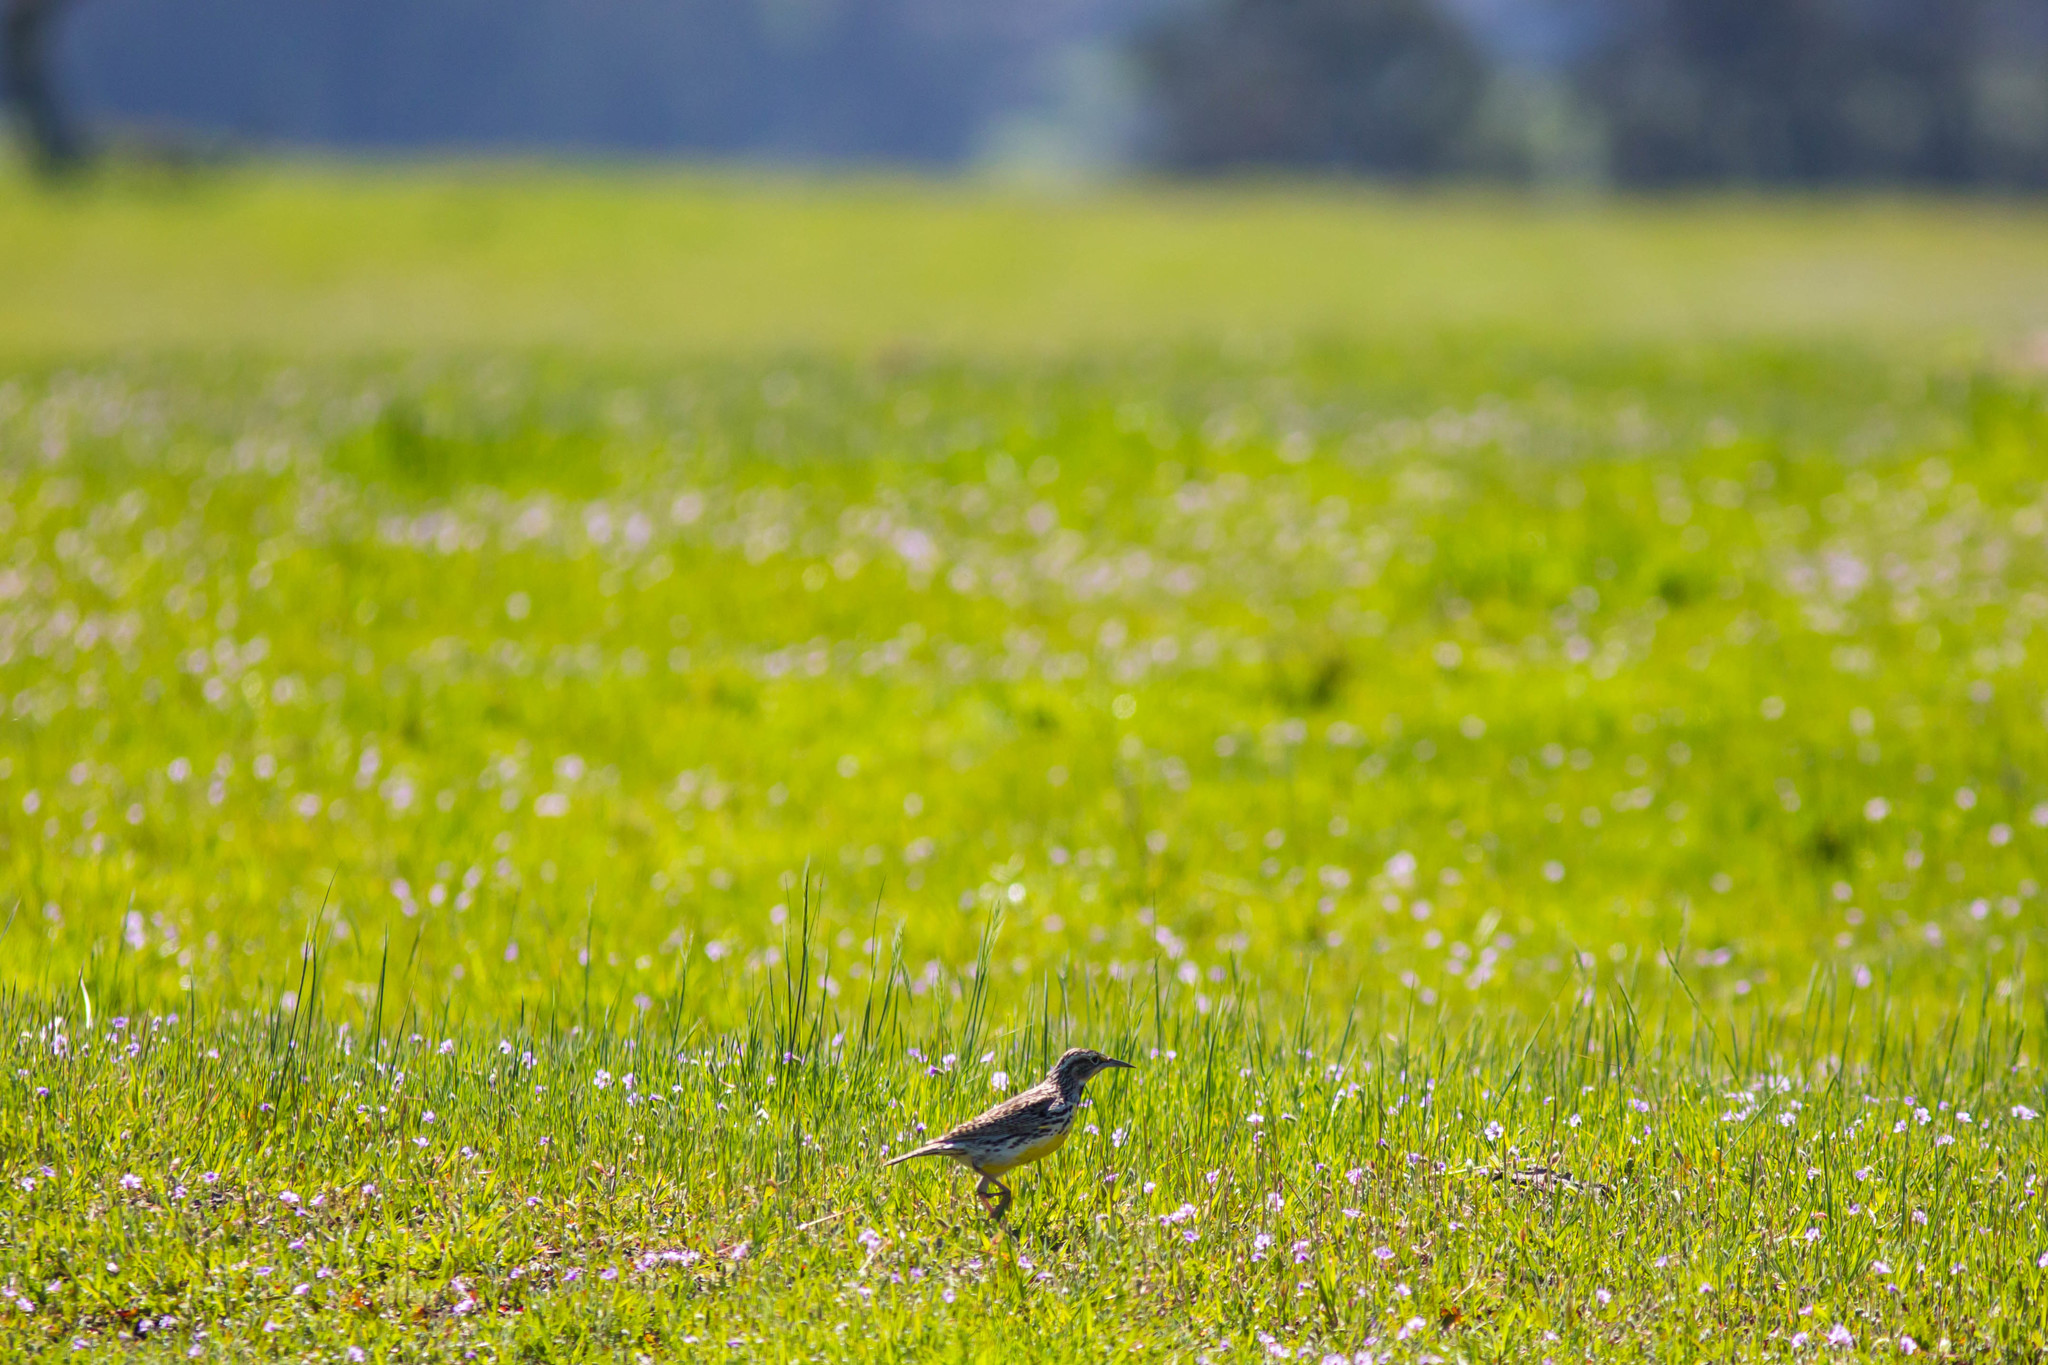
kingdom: Animalia
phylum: Chordata
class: Aves
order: Passeriformes
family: Icteridae
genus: Sturnella
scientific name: Sturnella neglecta
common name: Western meadowlark
